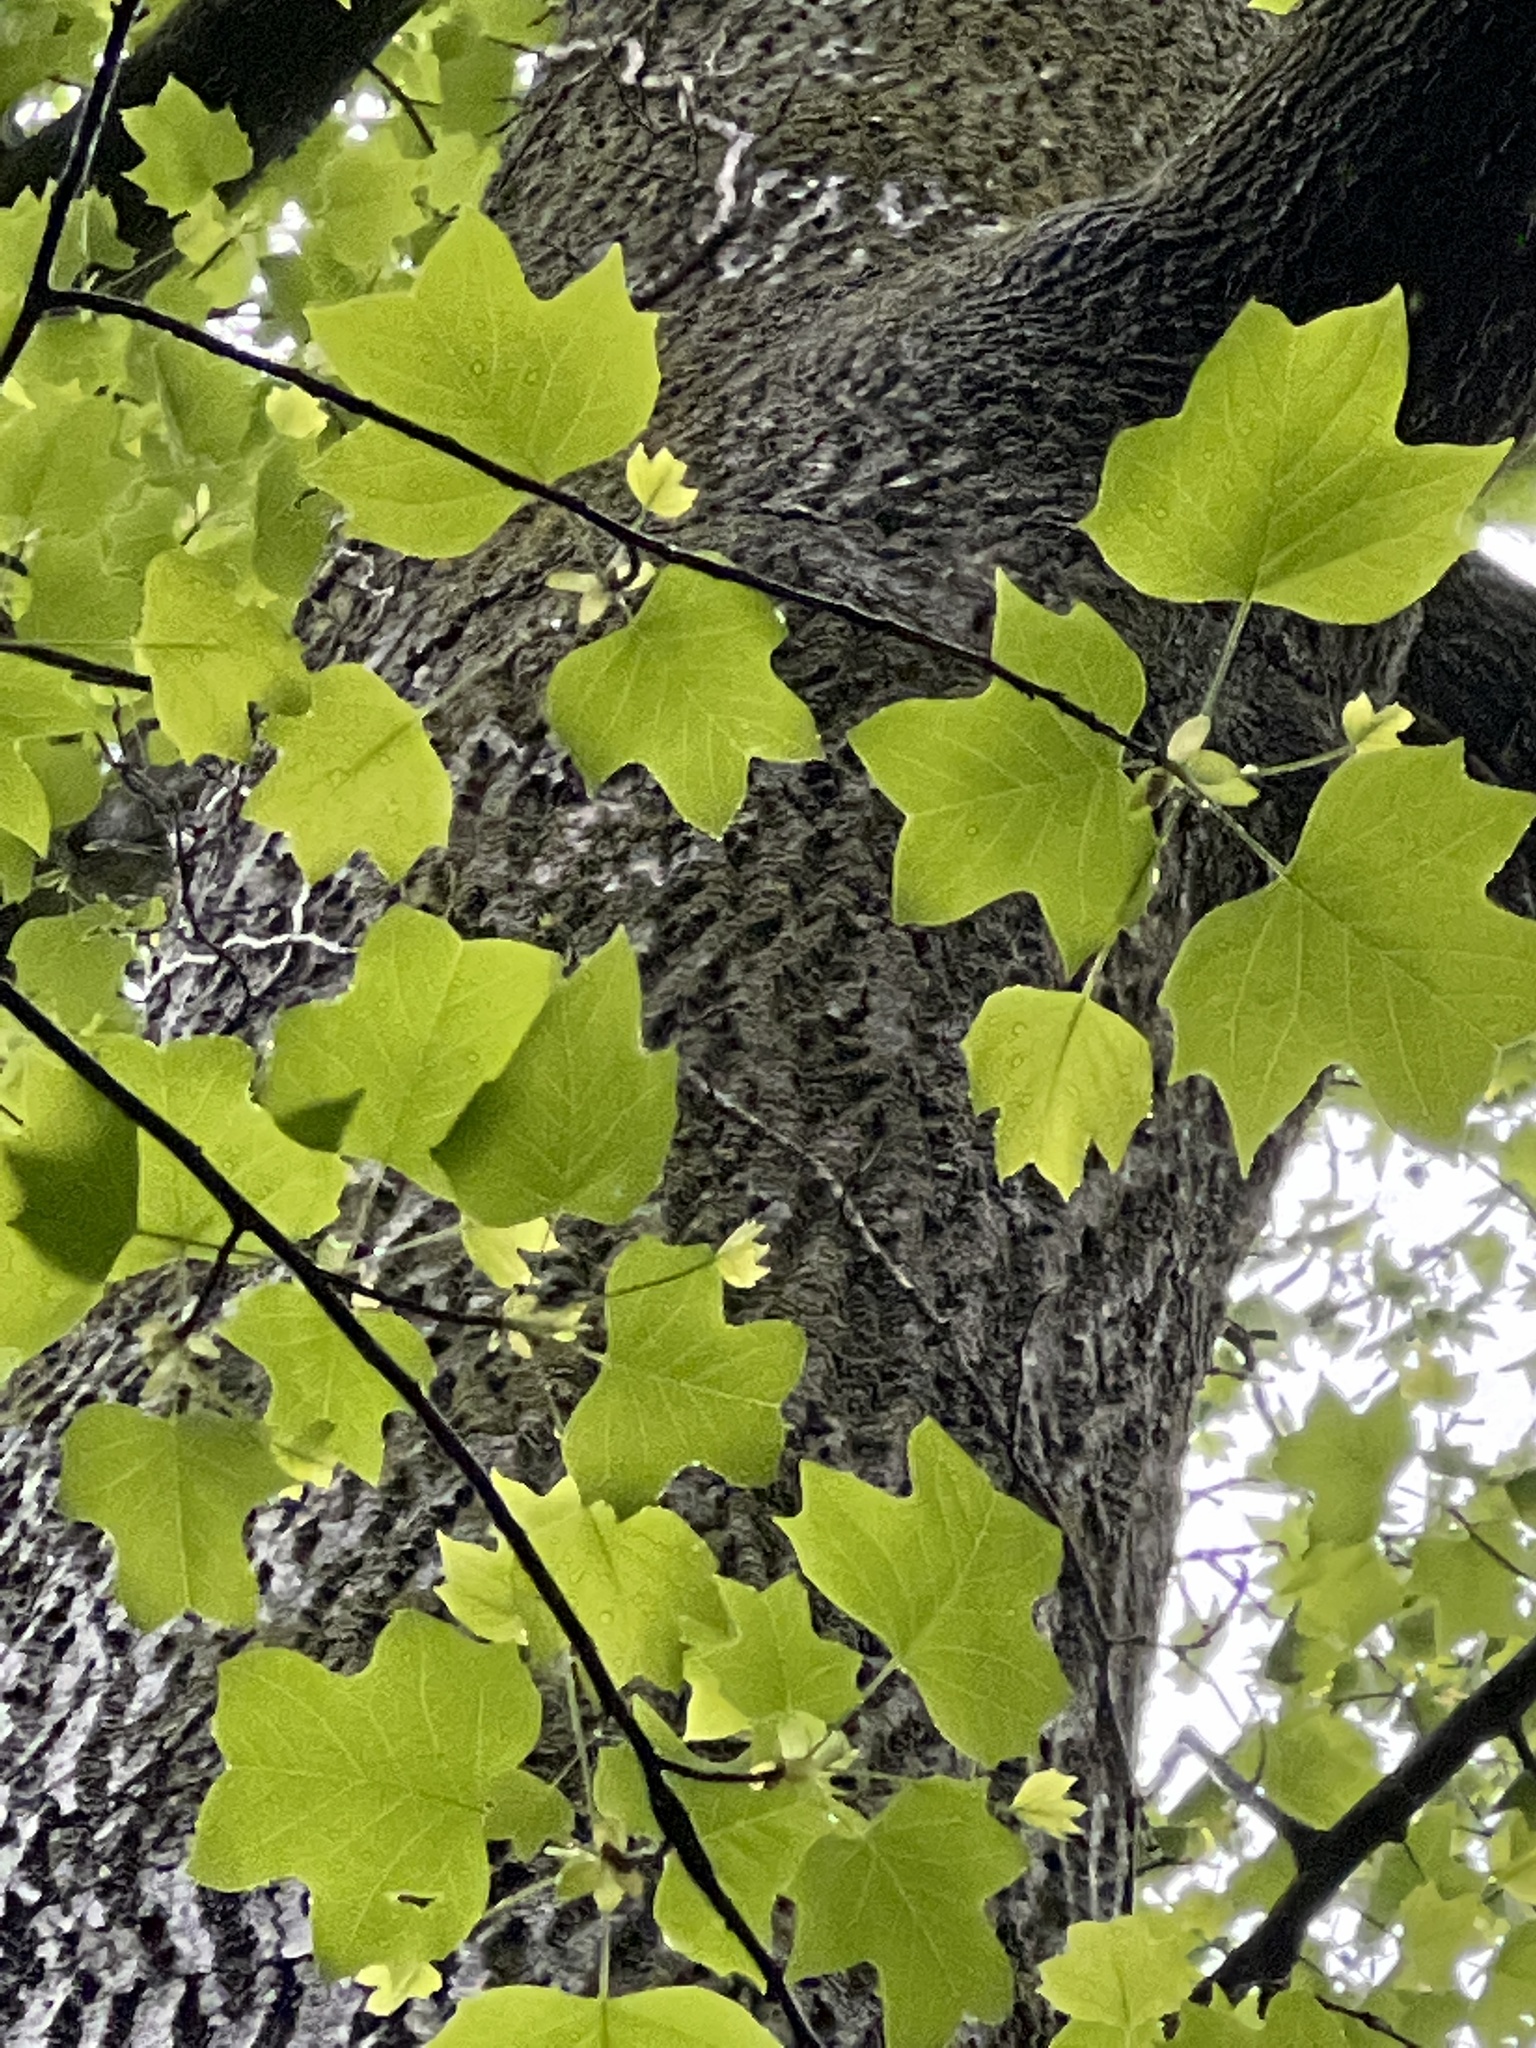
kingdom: Plantae
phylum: Tracheophyta
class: Magnoliopsida
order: Magnoliales
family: Magnoliaceae
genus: Liriodendron
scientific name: Liriodendron tulipifera
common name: Tulip tree
